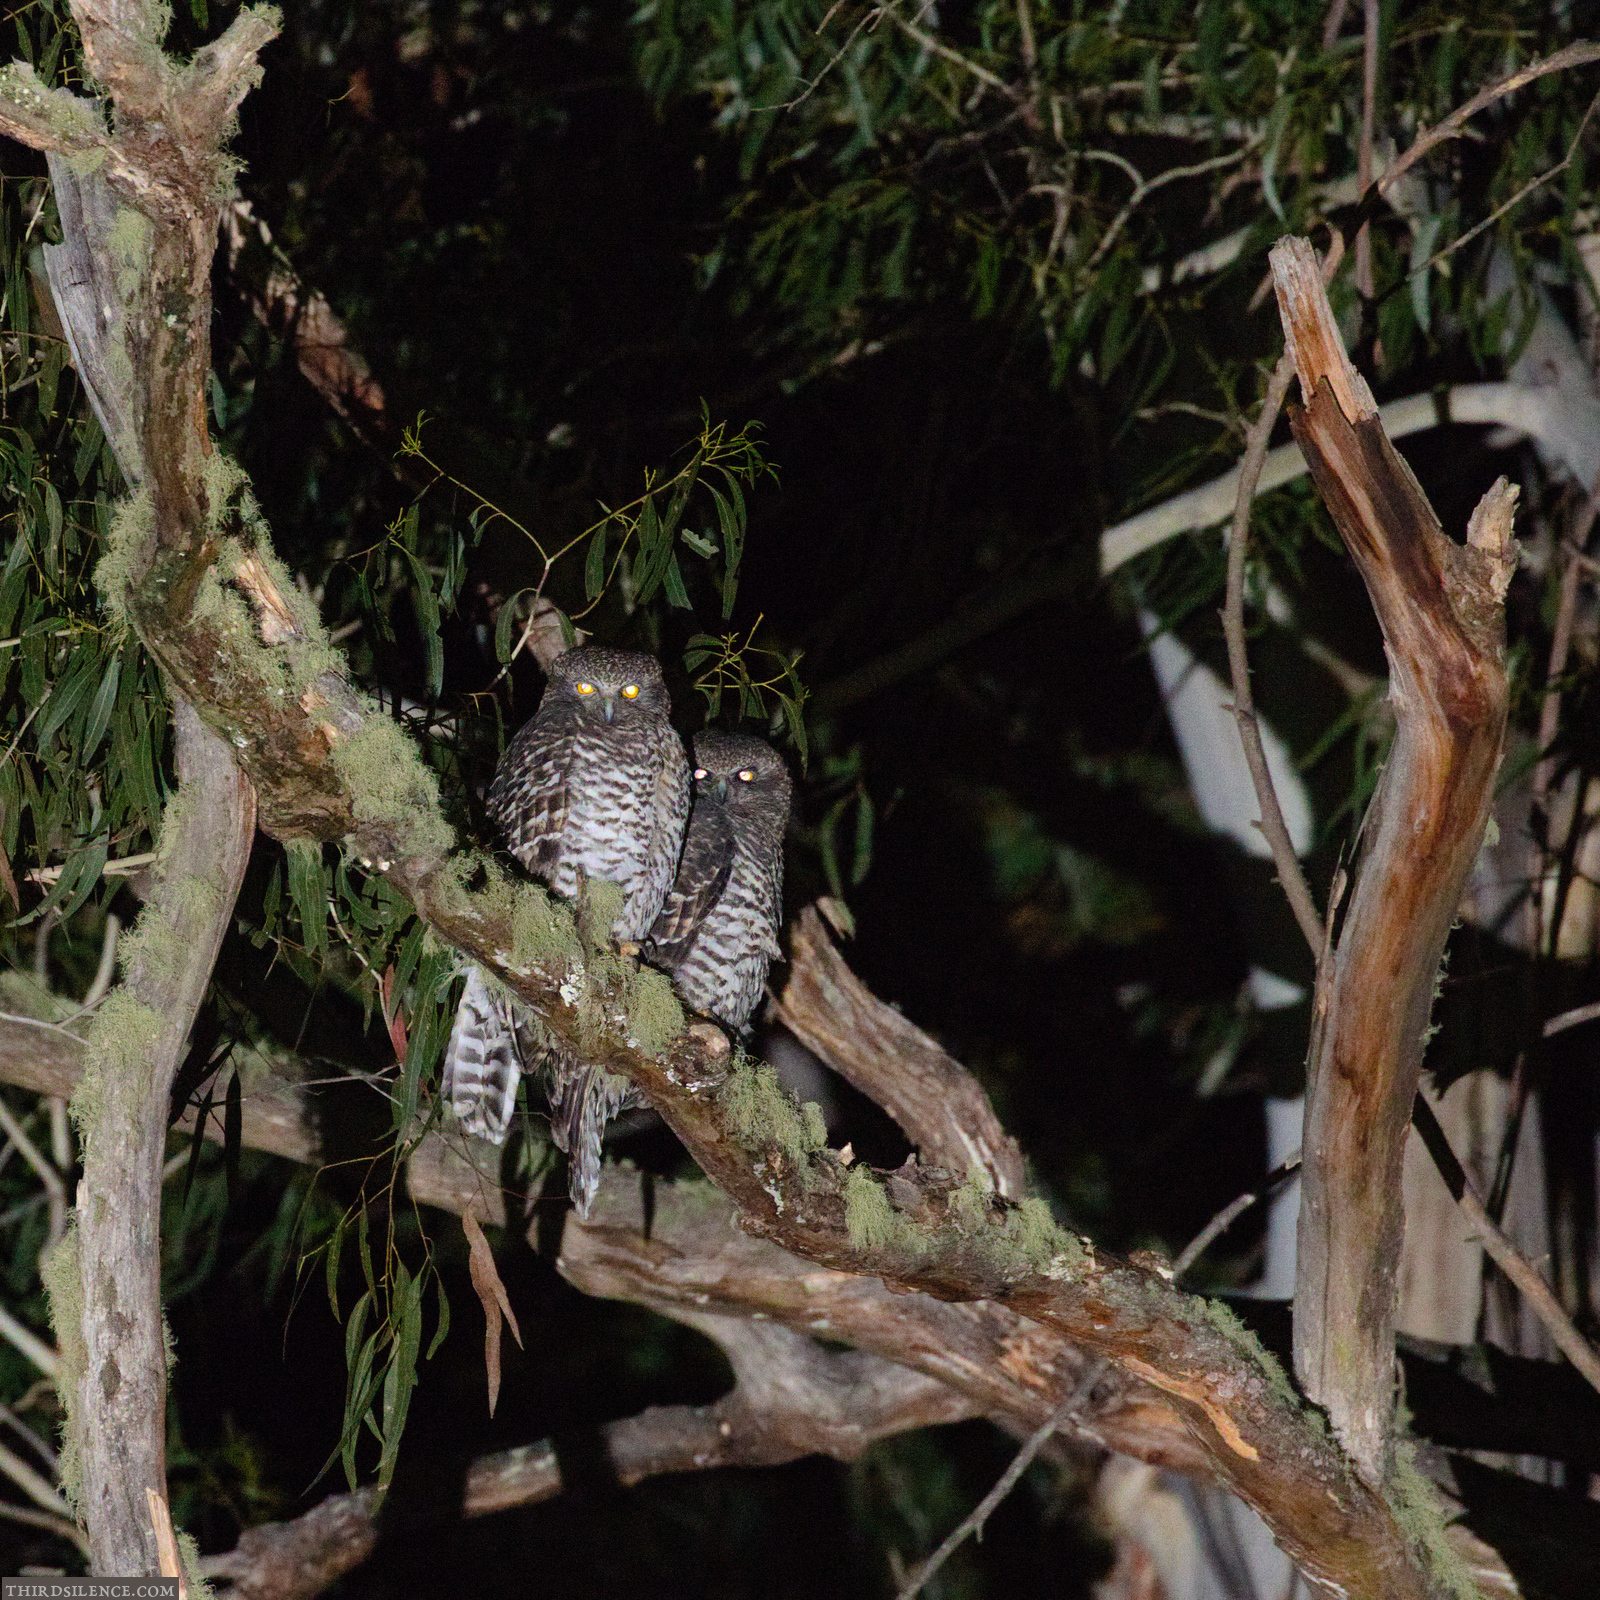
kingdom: Animalia
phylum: Chordata
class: Aves
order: Strigiformes
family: Strigidae
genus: Ninox
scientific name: Ninox strenua
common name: Powerful owl
